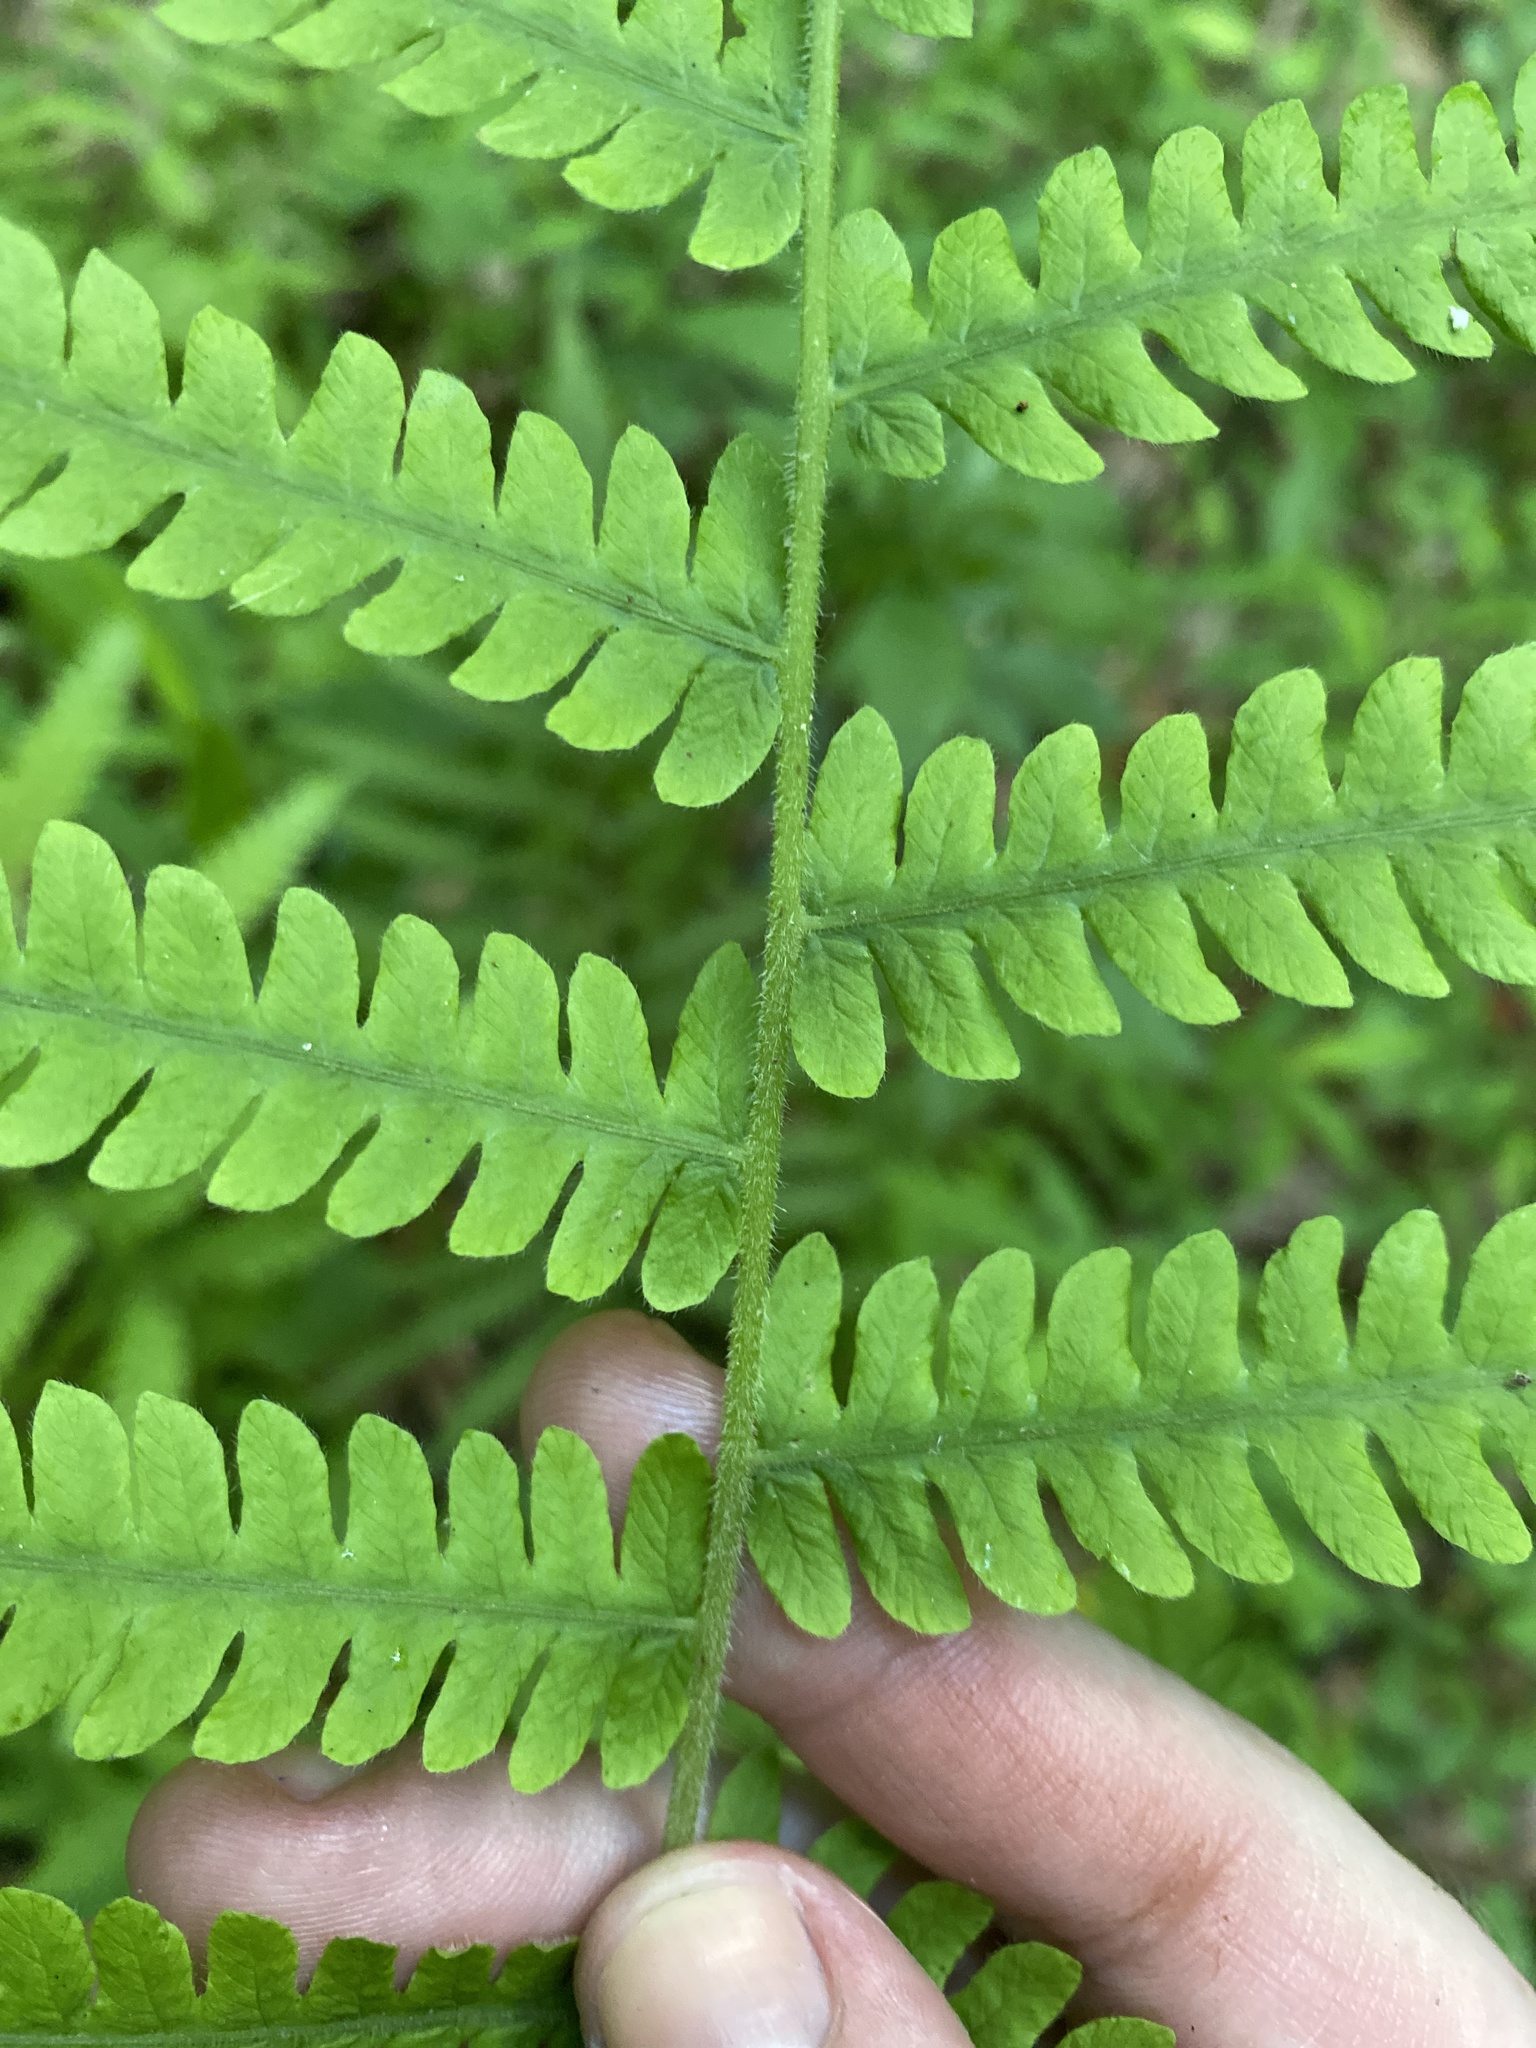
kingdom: Plantae
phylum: Tracheophyta
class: Polypodiopsida
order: Polypodiales
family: Thelypteridaceae
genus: Pelazoneuron
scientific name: Pelazoneuron kunthii
